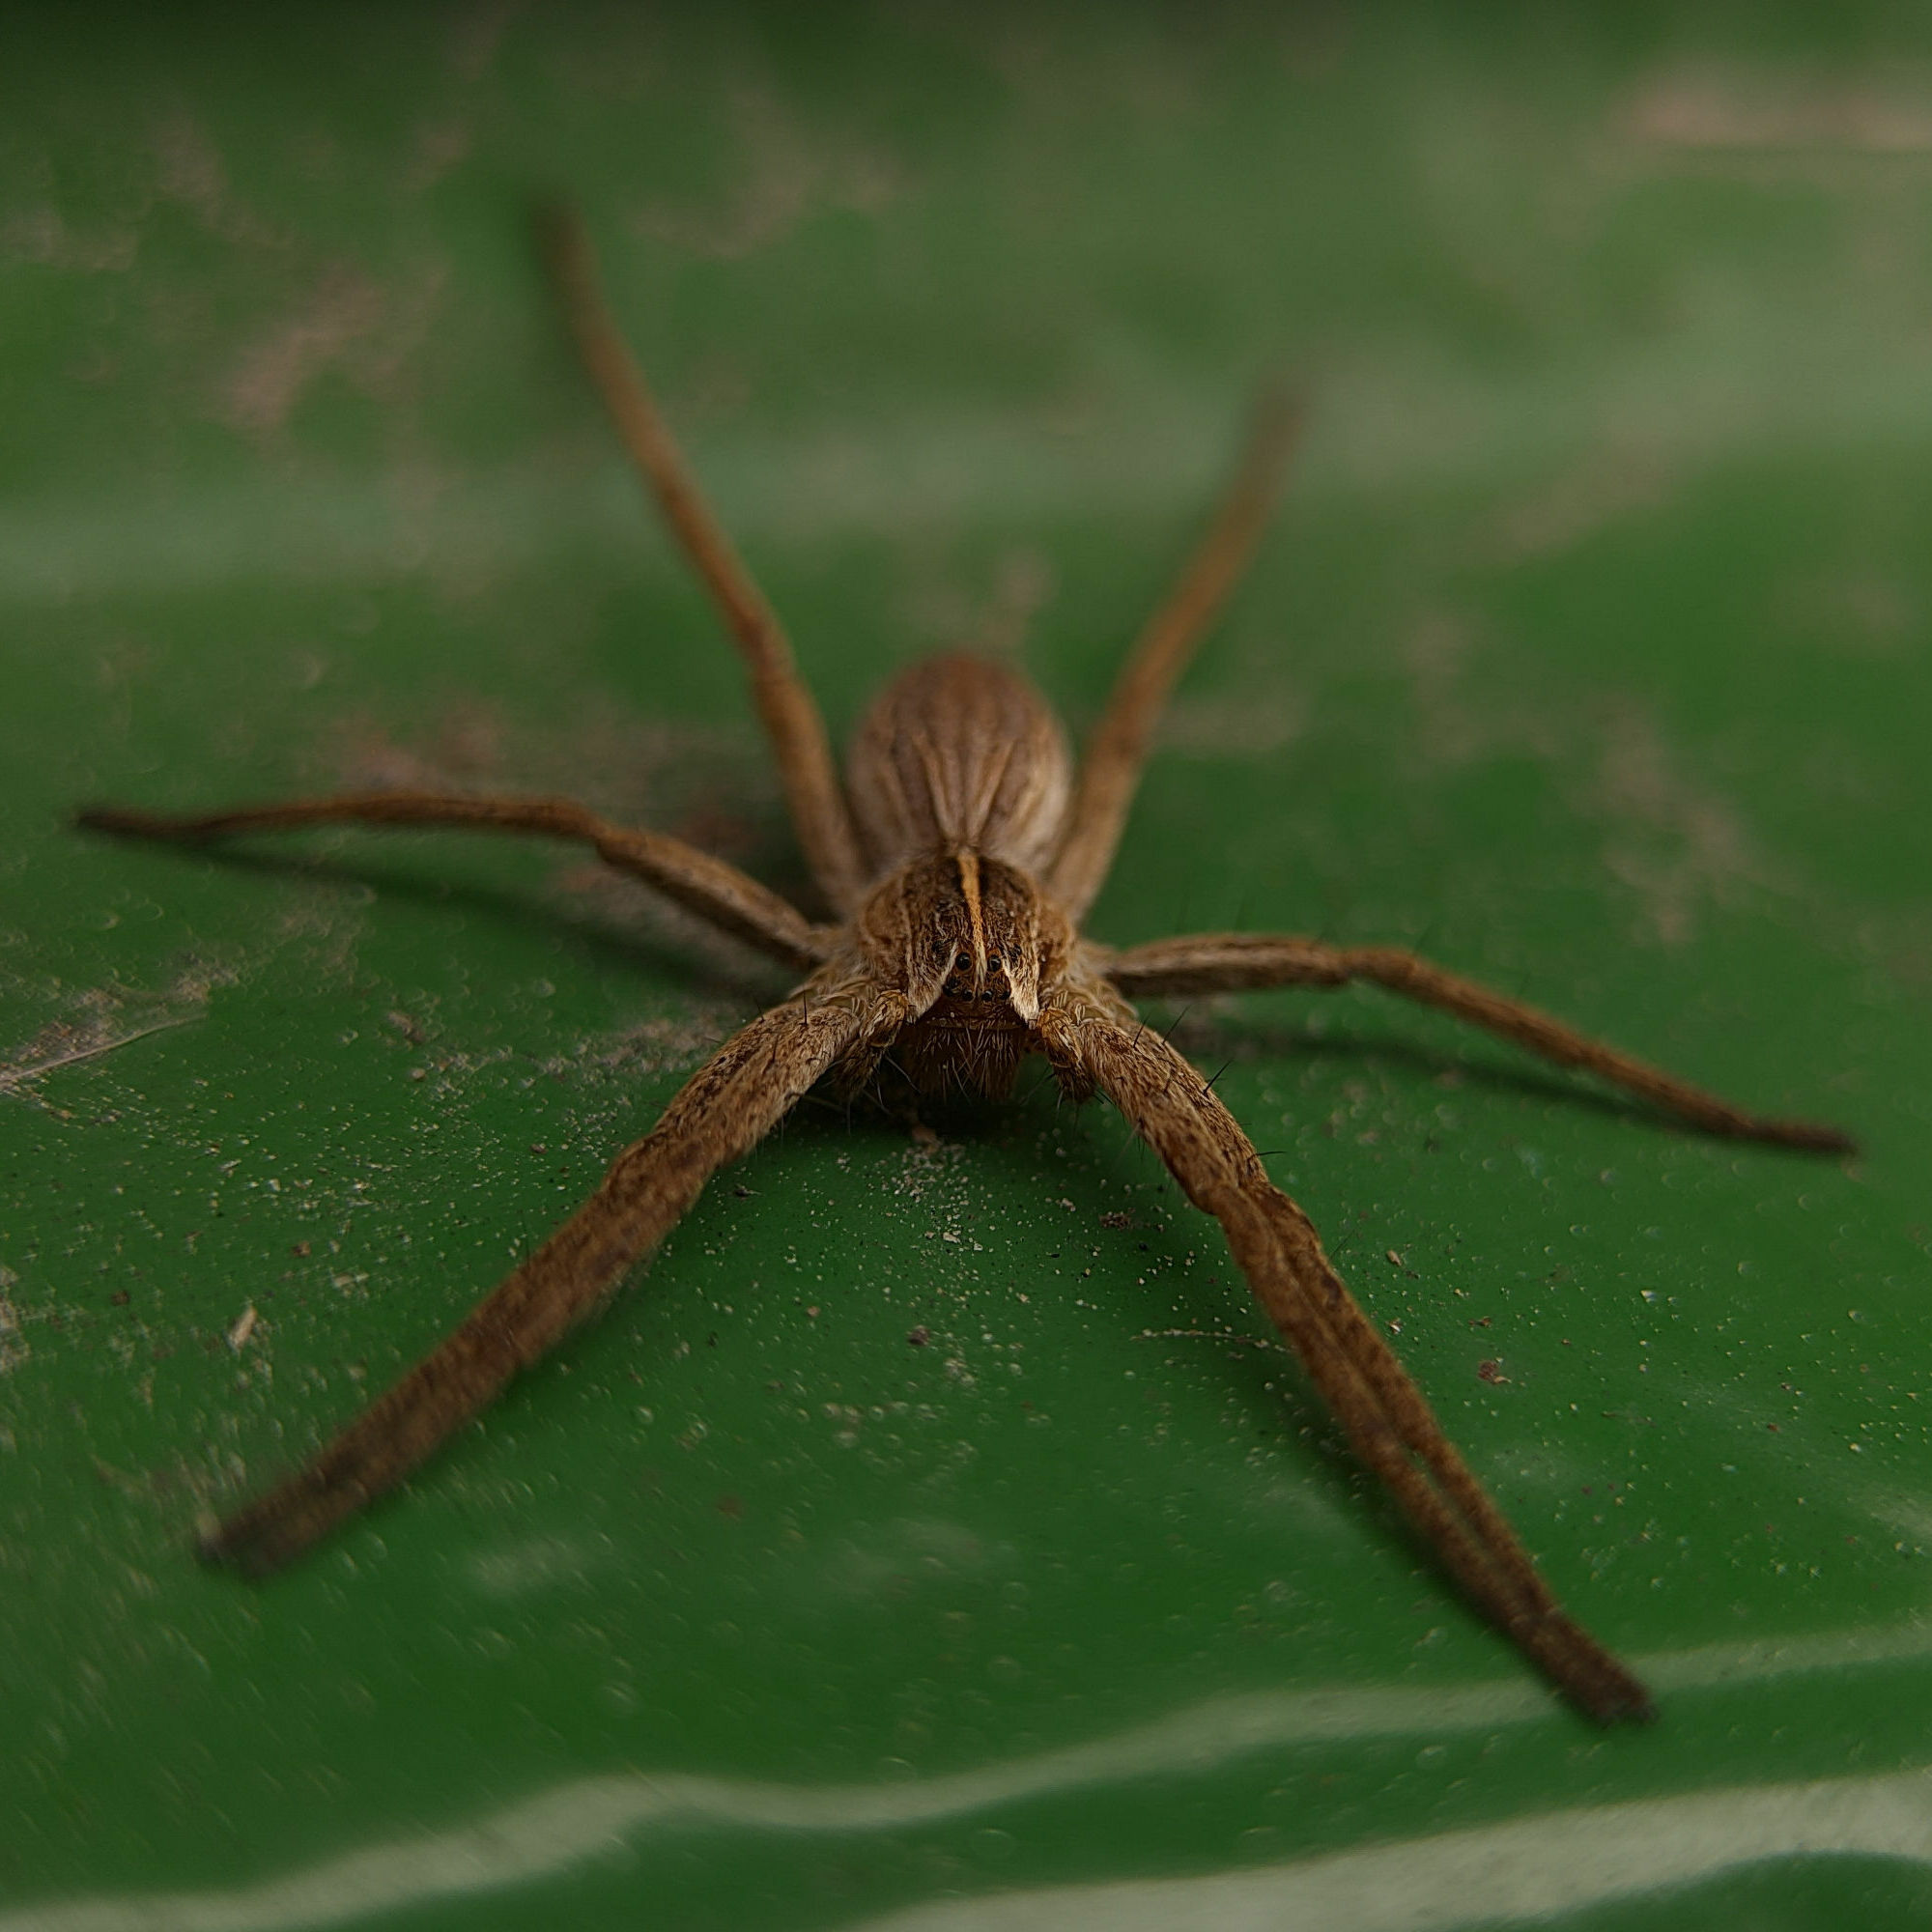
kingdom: Animalia
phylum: Arthropoda
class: Arachnida
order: Araneae
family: Pisauridae
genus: Pisaura
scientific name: Pisaura mirabilis
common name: Tent spider
